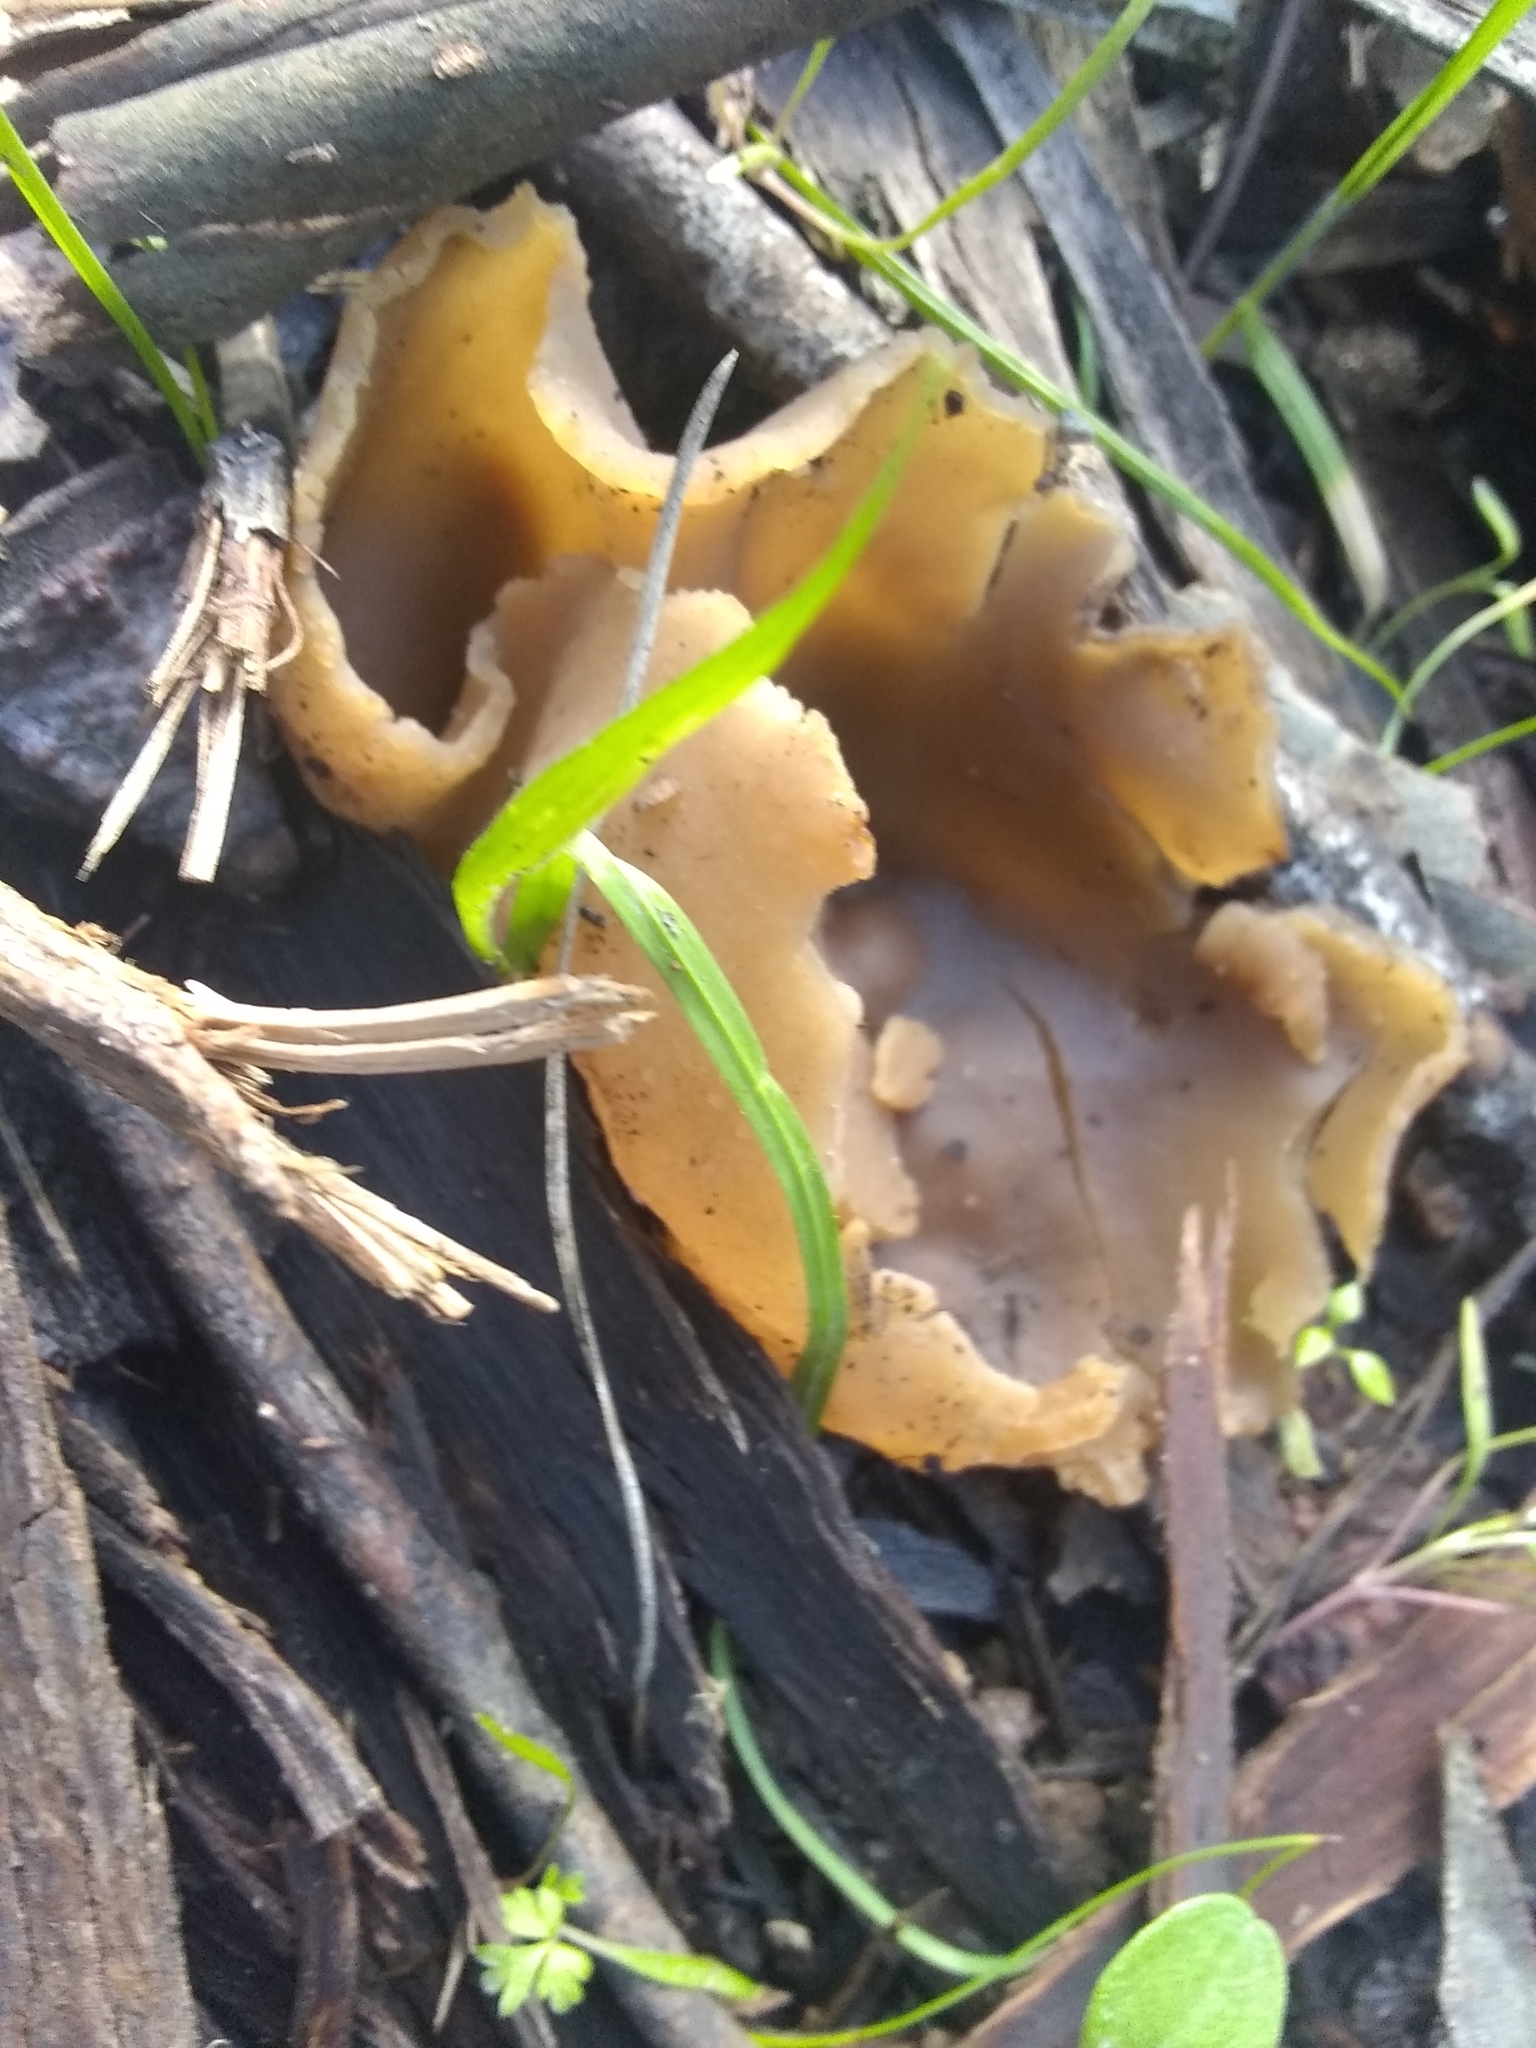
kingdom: Fungi
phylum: Ascomycota
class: Pezizomycetes
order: Pezizales
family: Pezizaceae
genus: Peziza
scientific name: Peziza varia
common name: Layered cup
